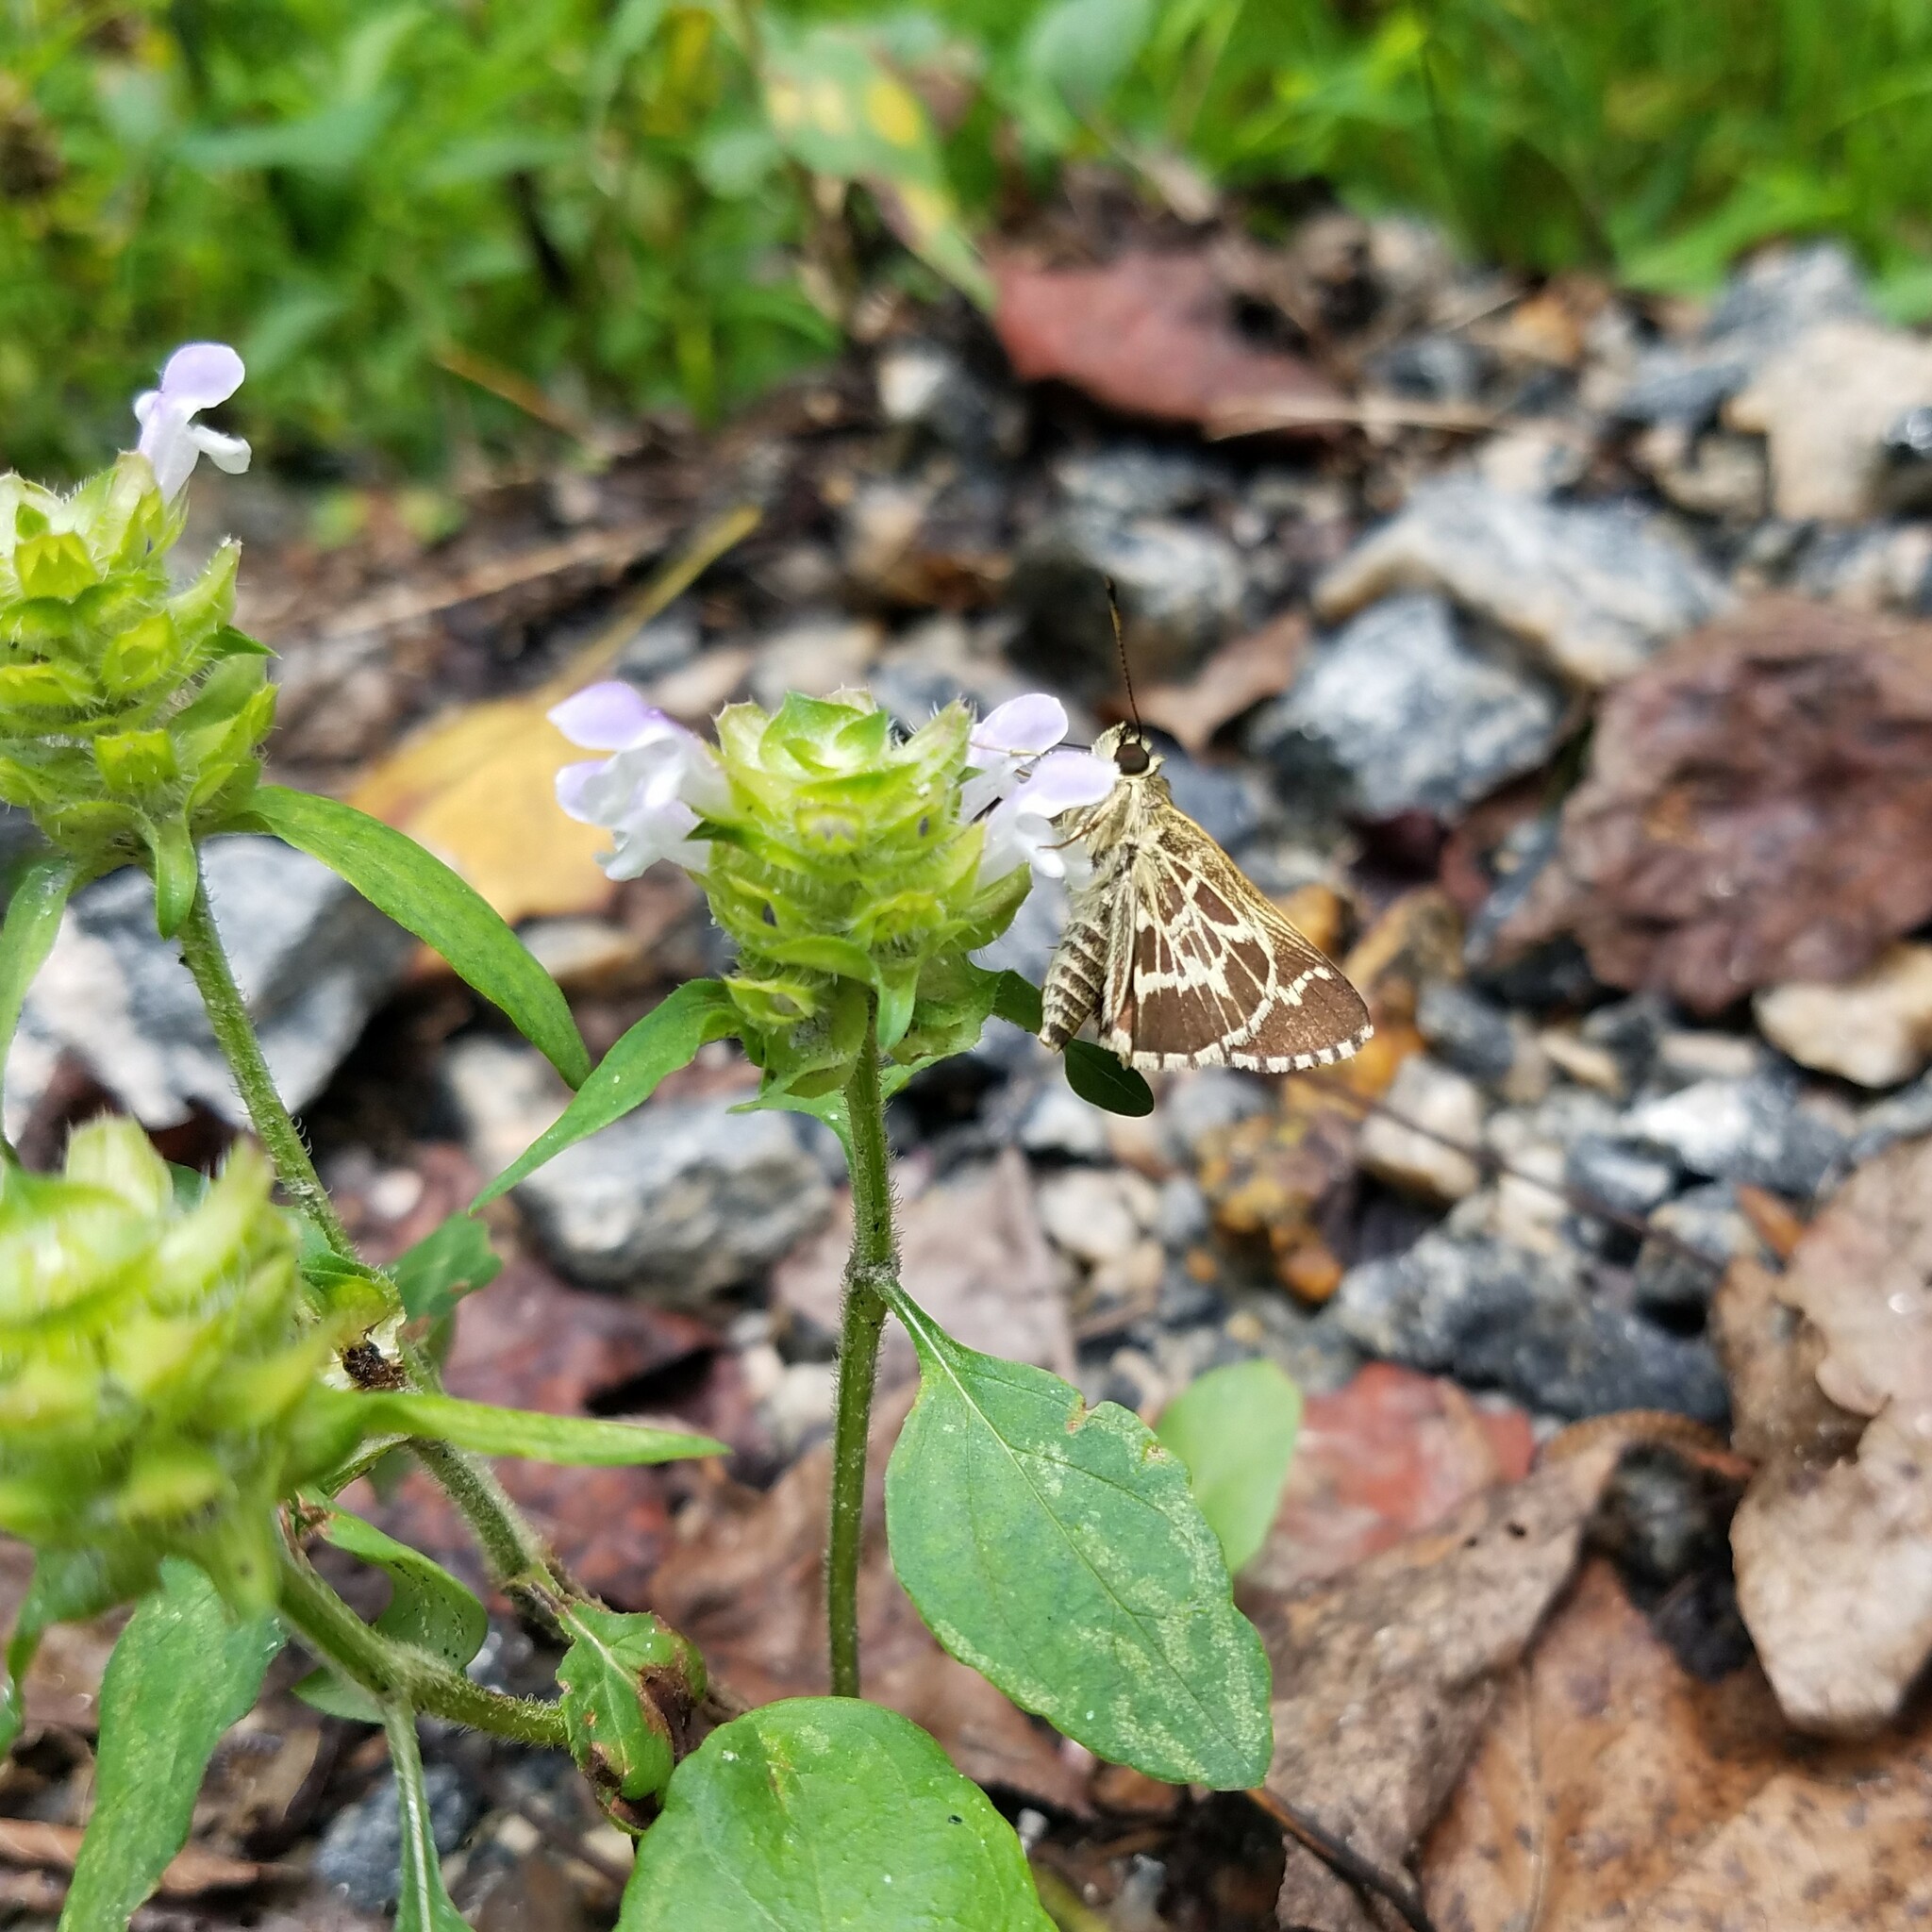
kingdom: Animalia
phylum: Arthropoda
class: Insecta
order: Lepidoptera
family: Hesperiidae
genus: Mastor
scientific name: Mastor aesculapius
